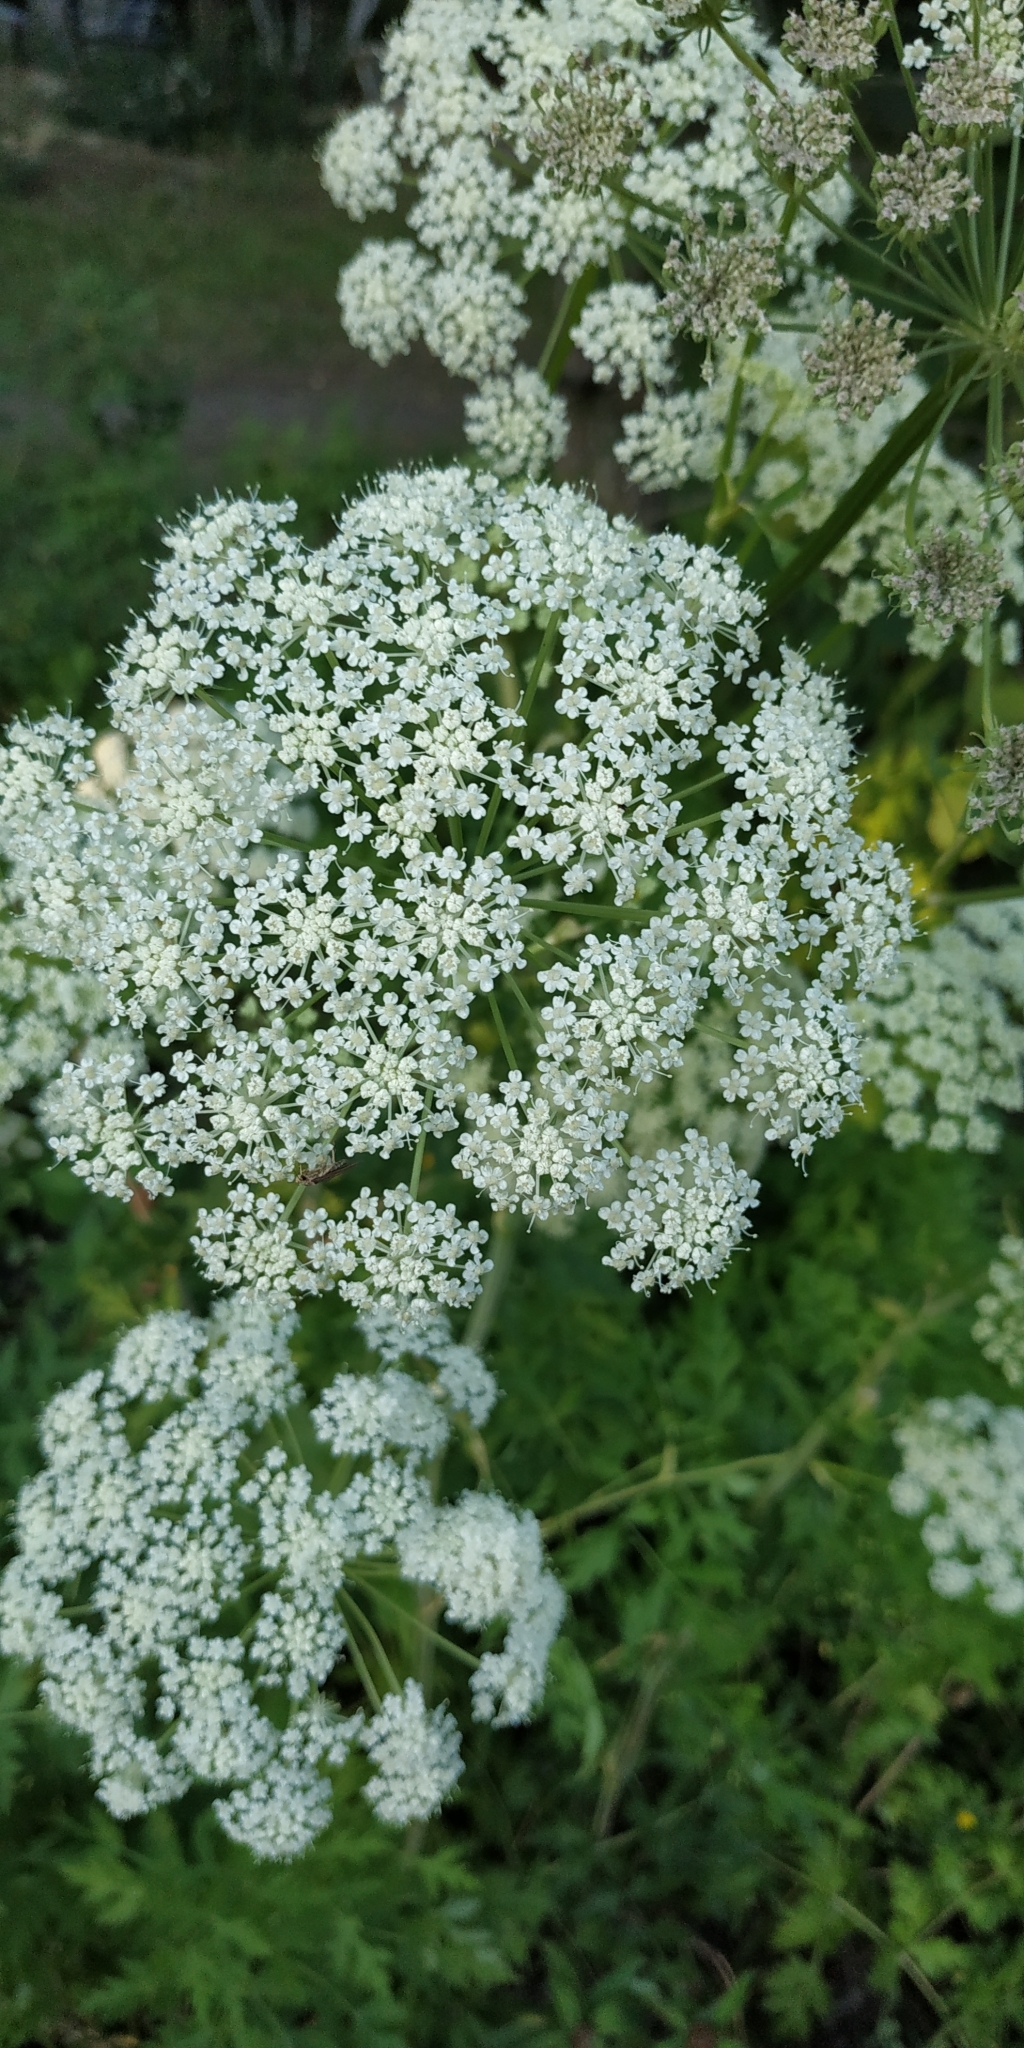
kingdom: Plantae
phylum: Tracheophyta
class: Magnoliopsida
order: Apiales
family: Apiaceae
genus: Seseli
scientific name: Seseli libanotis
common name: Mooncarrot
